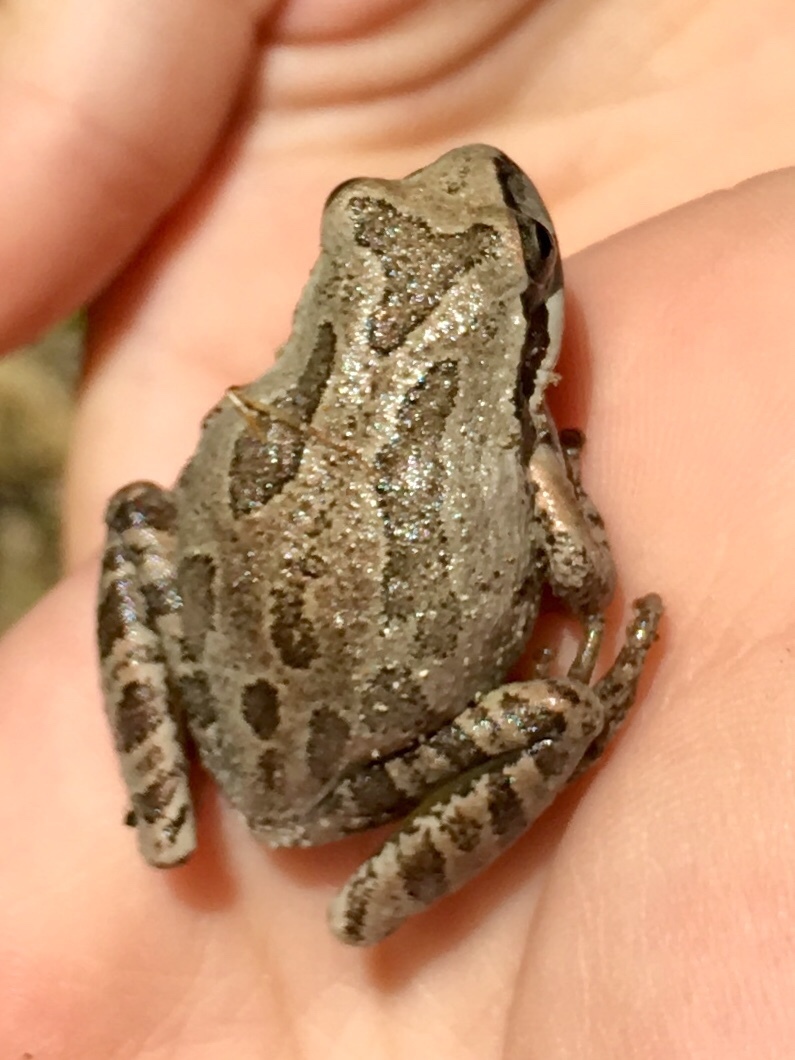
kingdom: Animalia
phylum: Chordata
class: Amphibia
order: Anura
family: Hylidae
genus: Pseudacris
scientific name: Pseudacris regilla
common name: Pacific chorus frog
